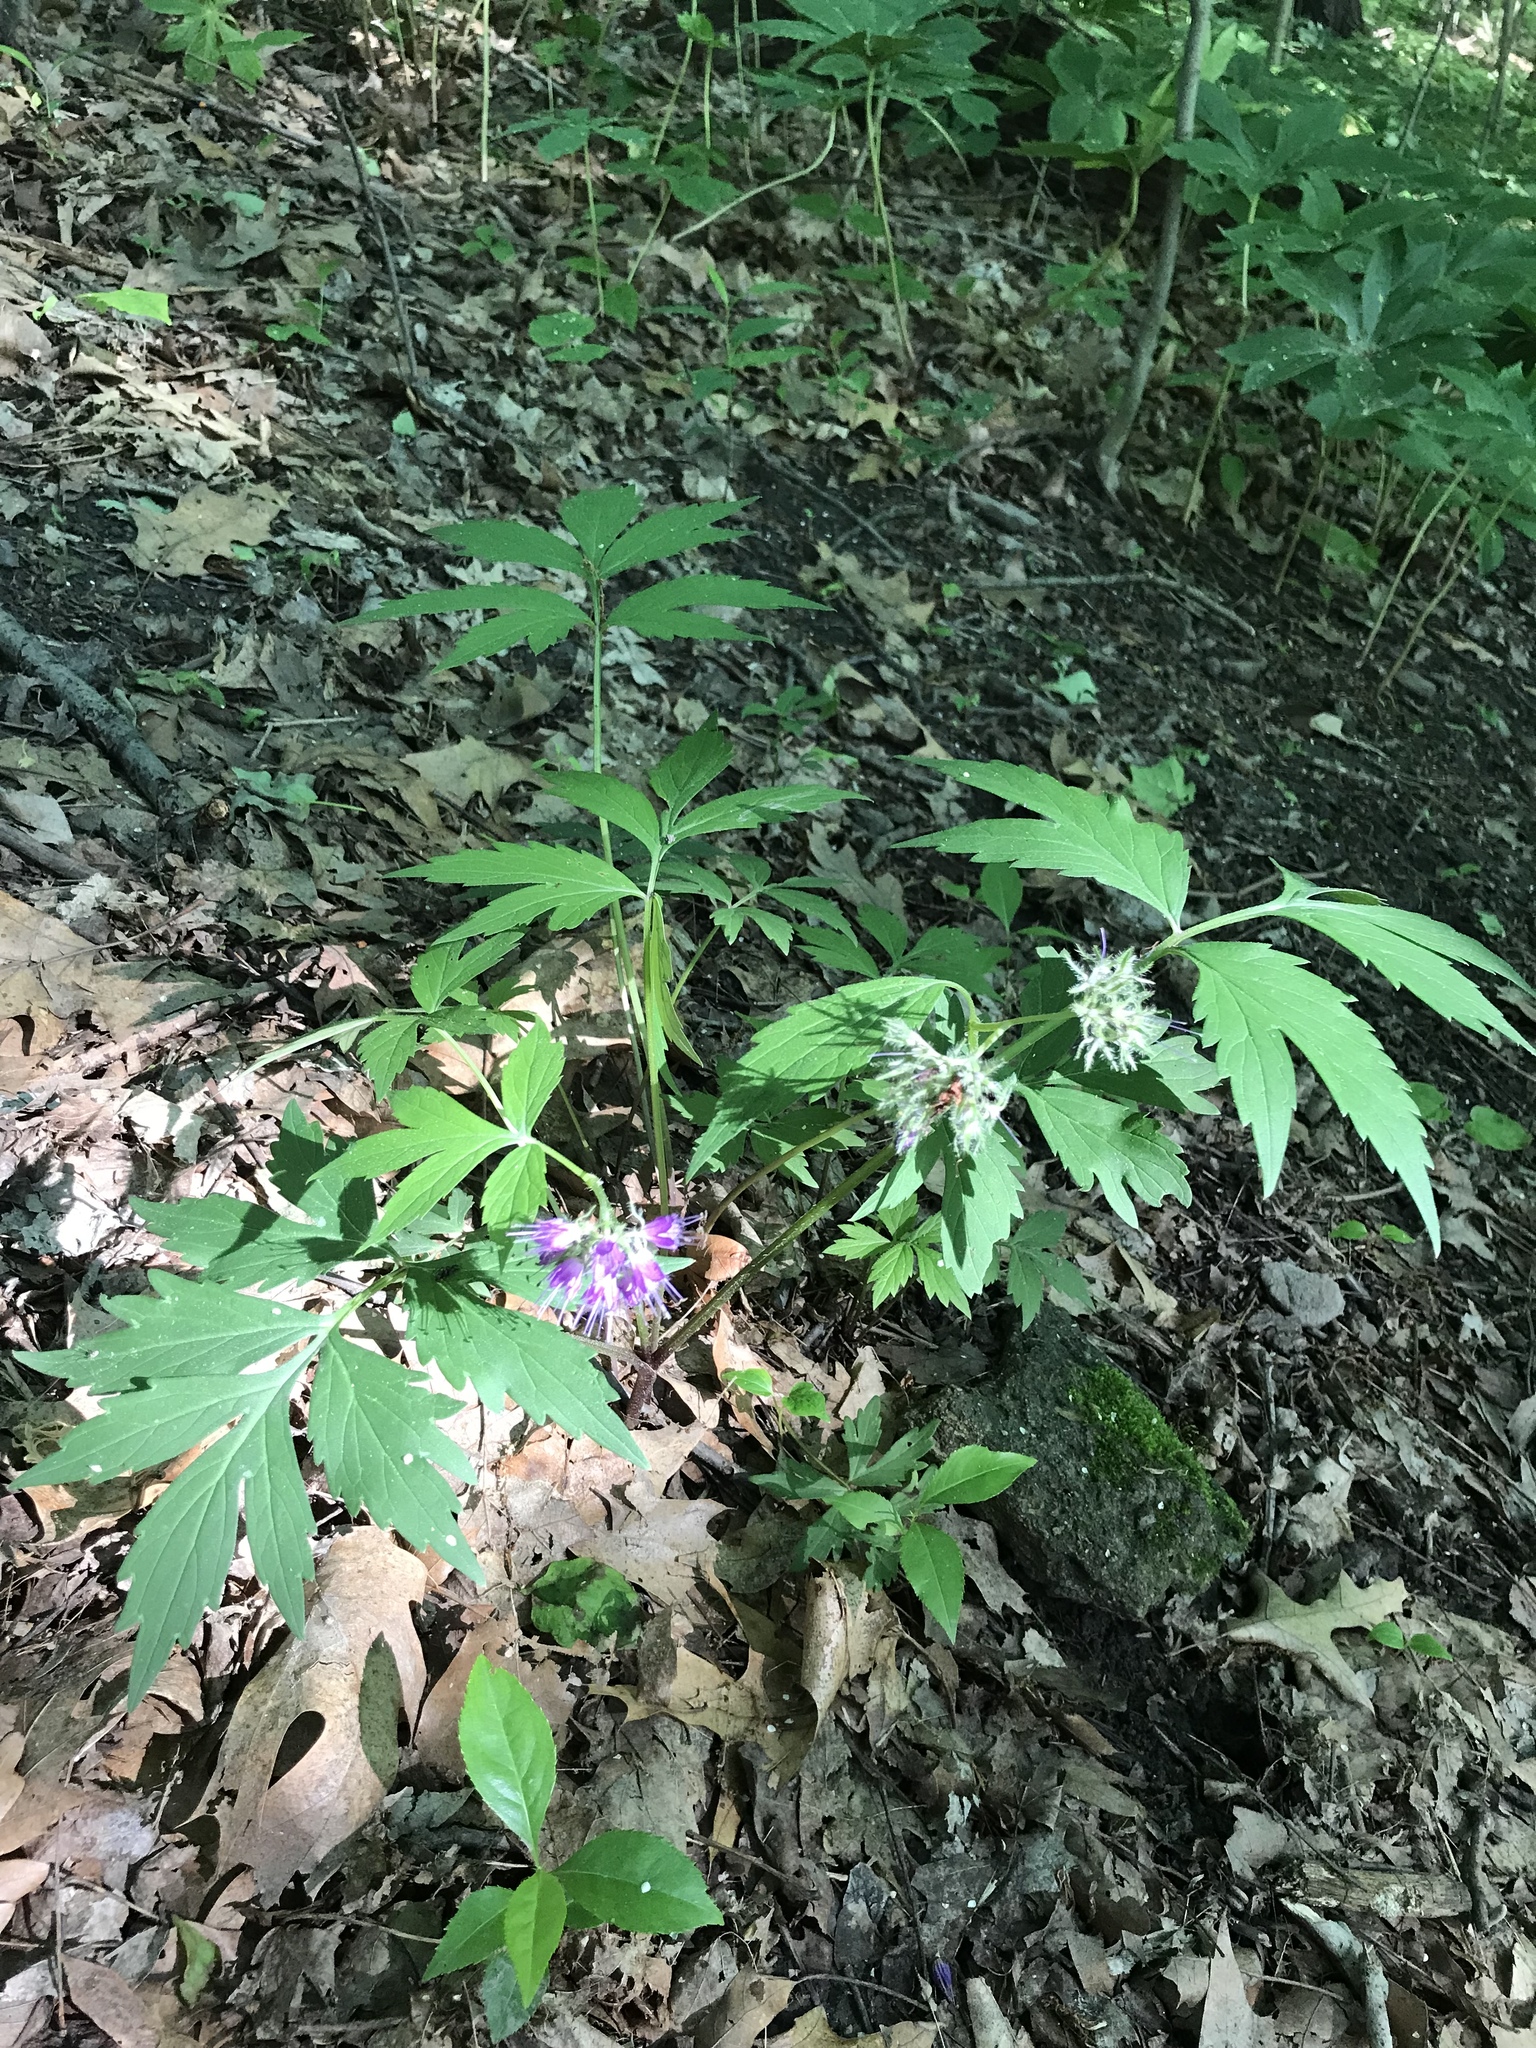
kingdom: Plantae
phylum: Tracheophyta
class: Magnoliopsida
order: Boraginales
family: Hydrophyllaceae
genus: Hydrophyllum
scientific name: Hydrophyllum virginianum
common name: Virginia waterleaf
